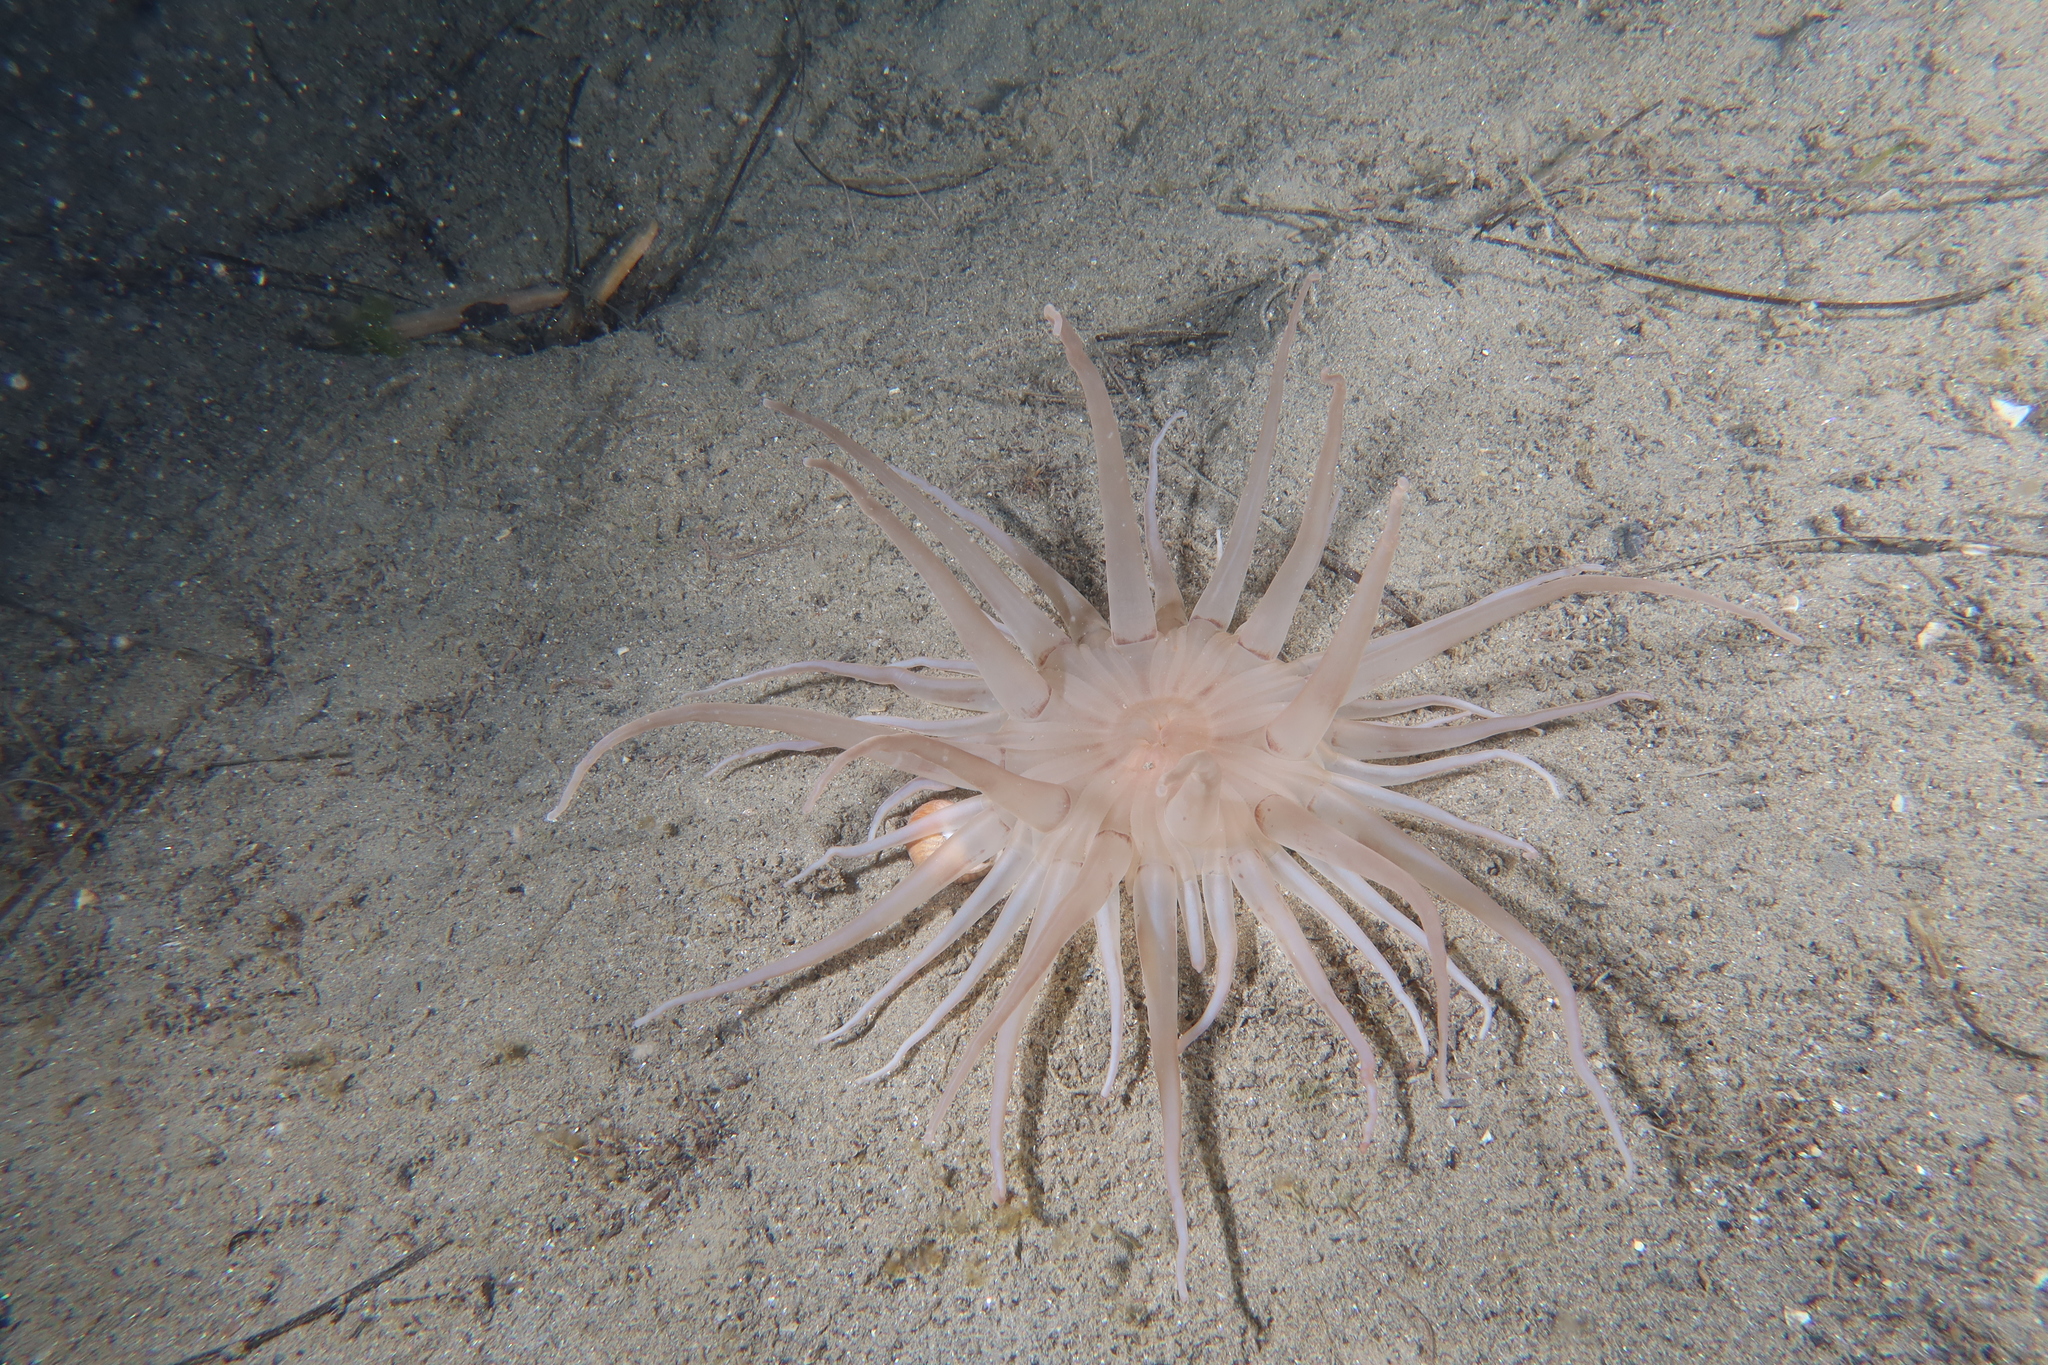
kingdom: Animalia
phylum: Cnidaria
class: Anthozoa
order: Actiniaria
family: Andresiidae
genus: Andresia
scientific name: Andresia partenopea
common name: Burrowing anemone
